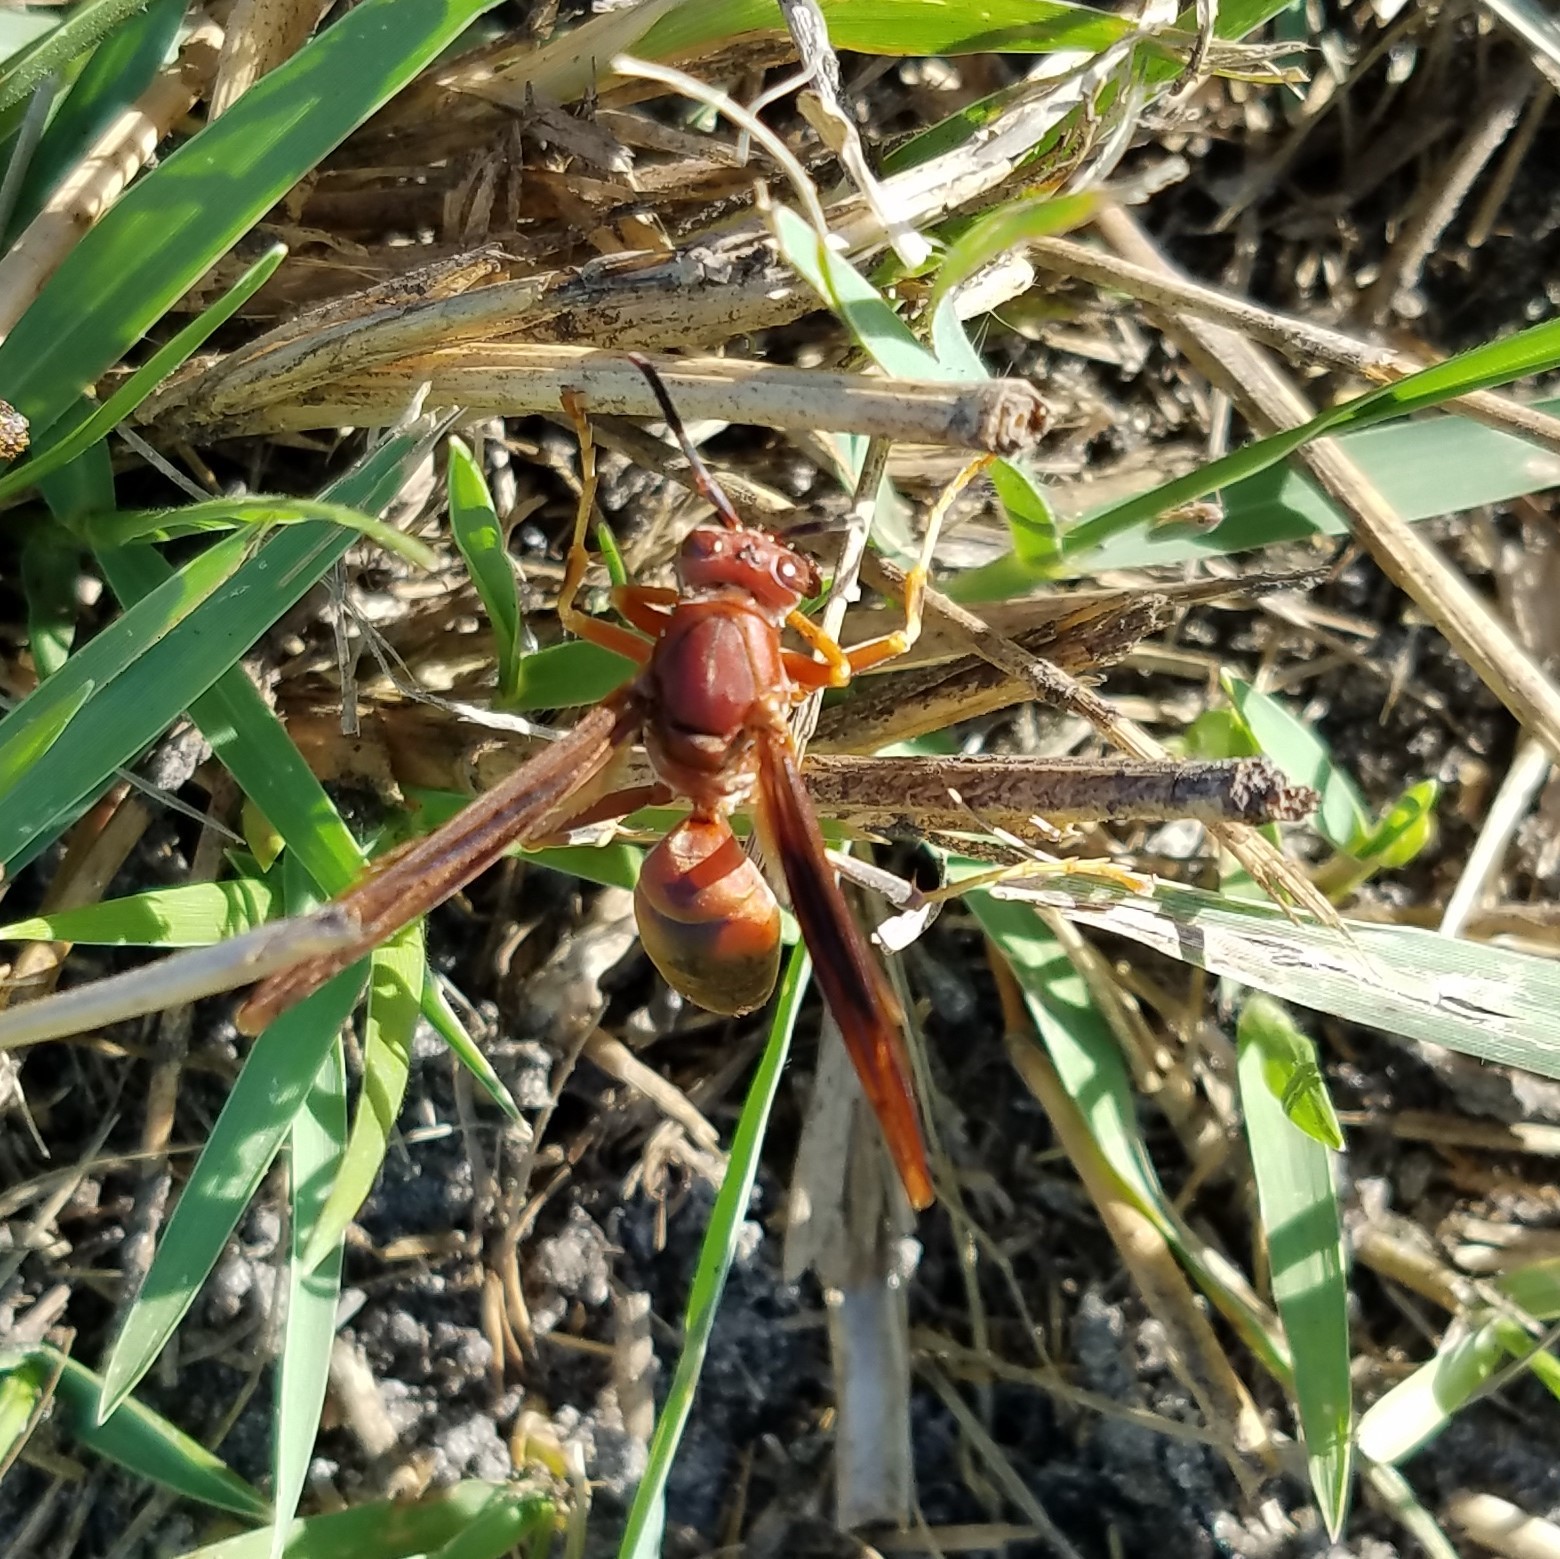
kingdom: Animalia
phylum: Arthropoda
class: Insecta
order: Hymenoptera
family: Eumenidae
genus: Polistes
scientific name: Polistes metricus
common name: Metric paper wasp
